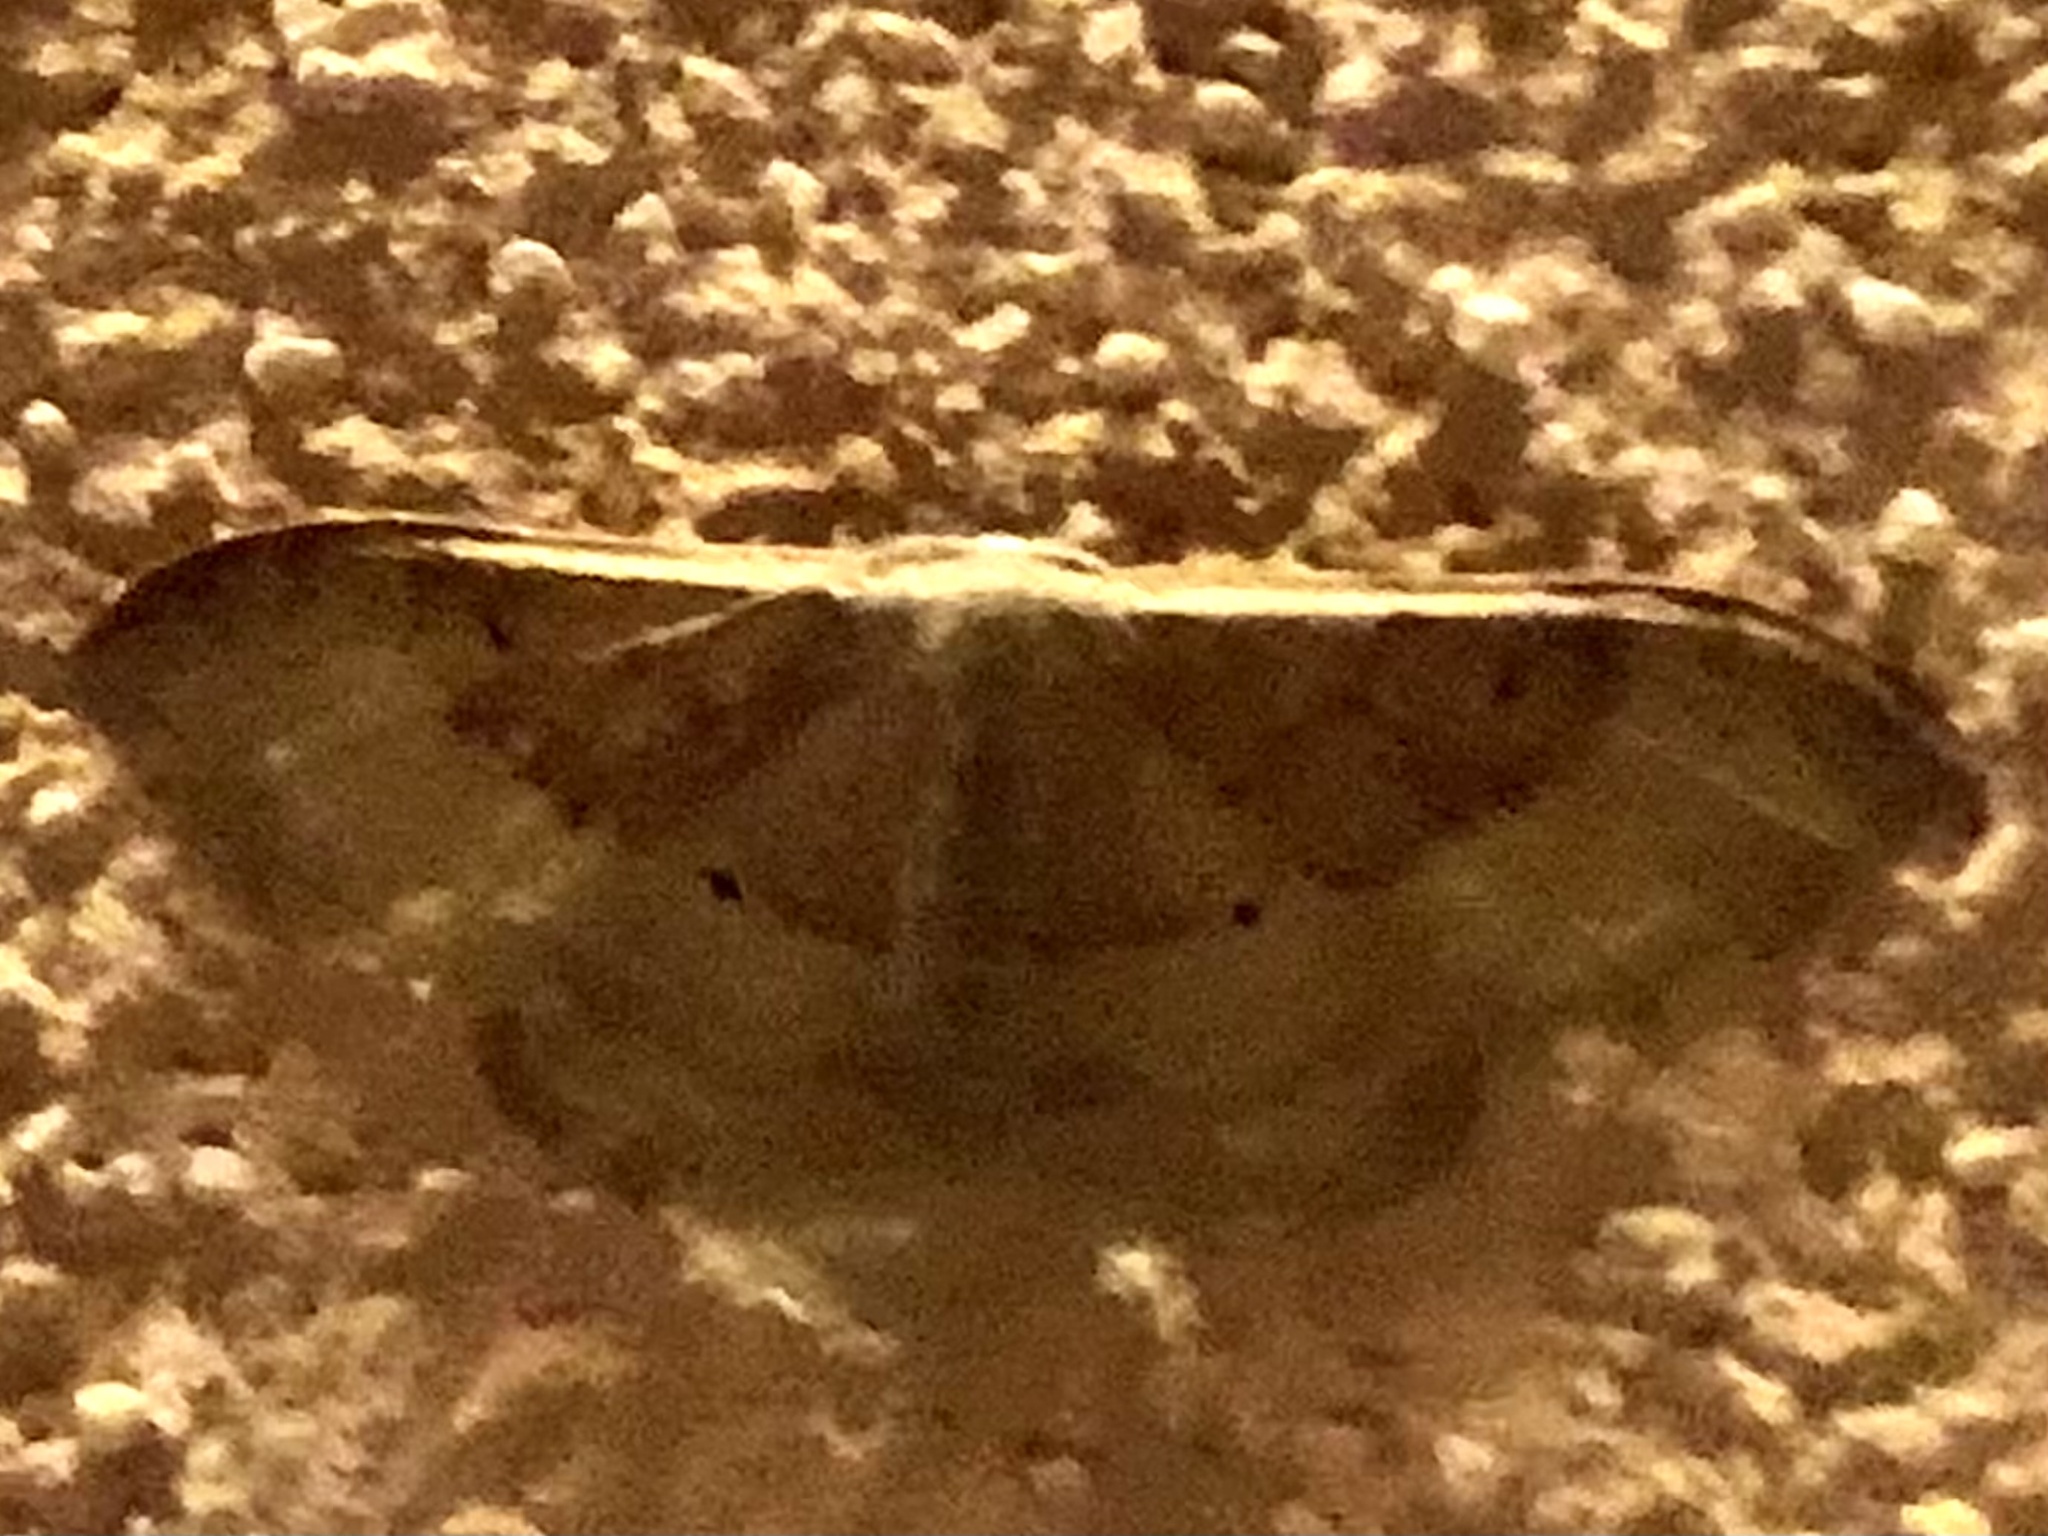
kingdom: Animalia
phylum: Arthropoda
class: Insecta
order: Lepidoptera
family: Geometridae
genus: Idaea
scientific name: Idaea degeneraria
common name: Portland ribbon wave
